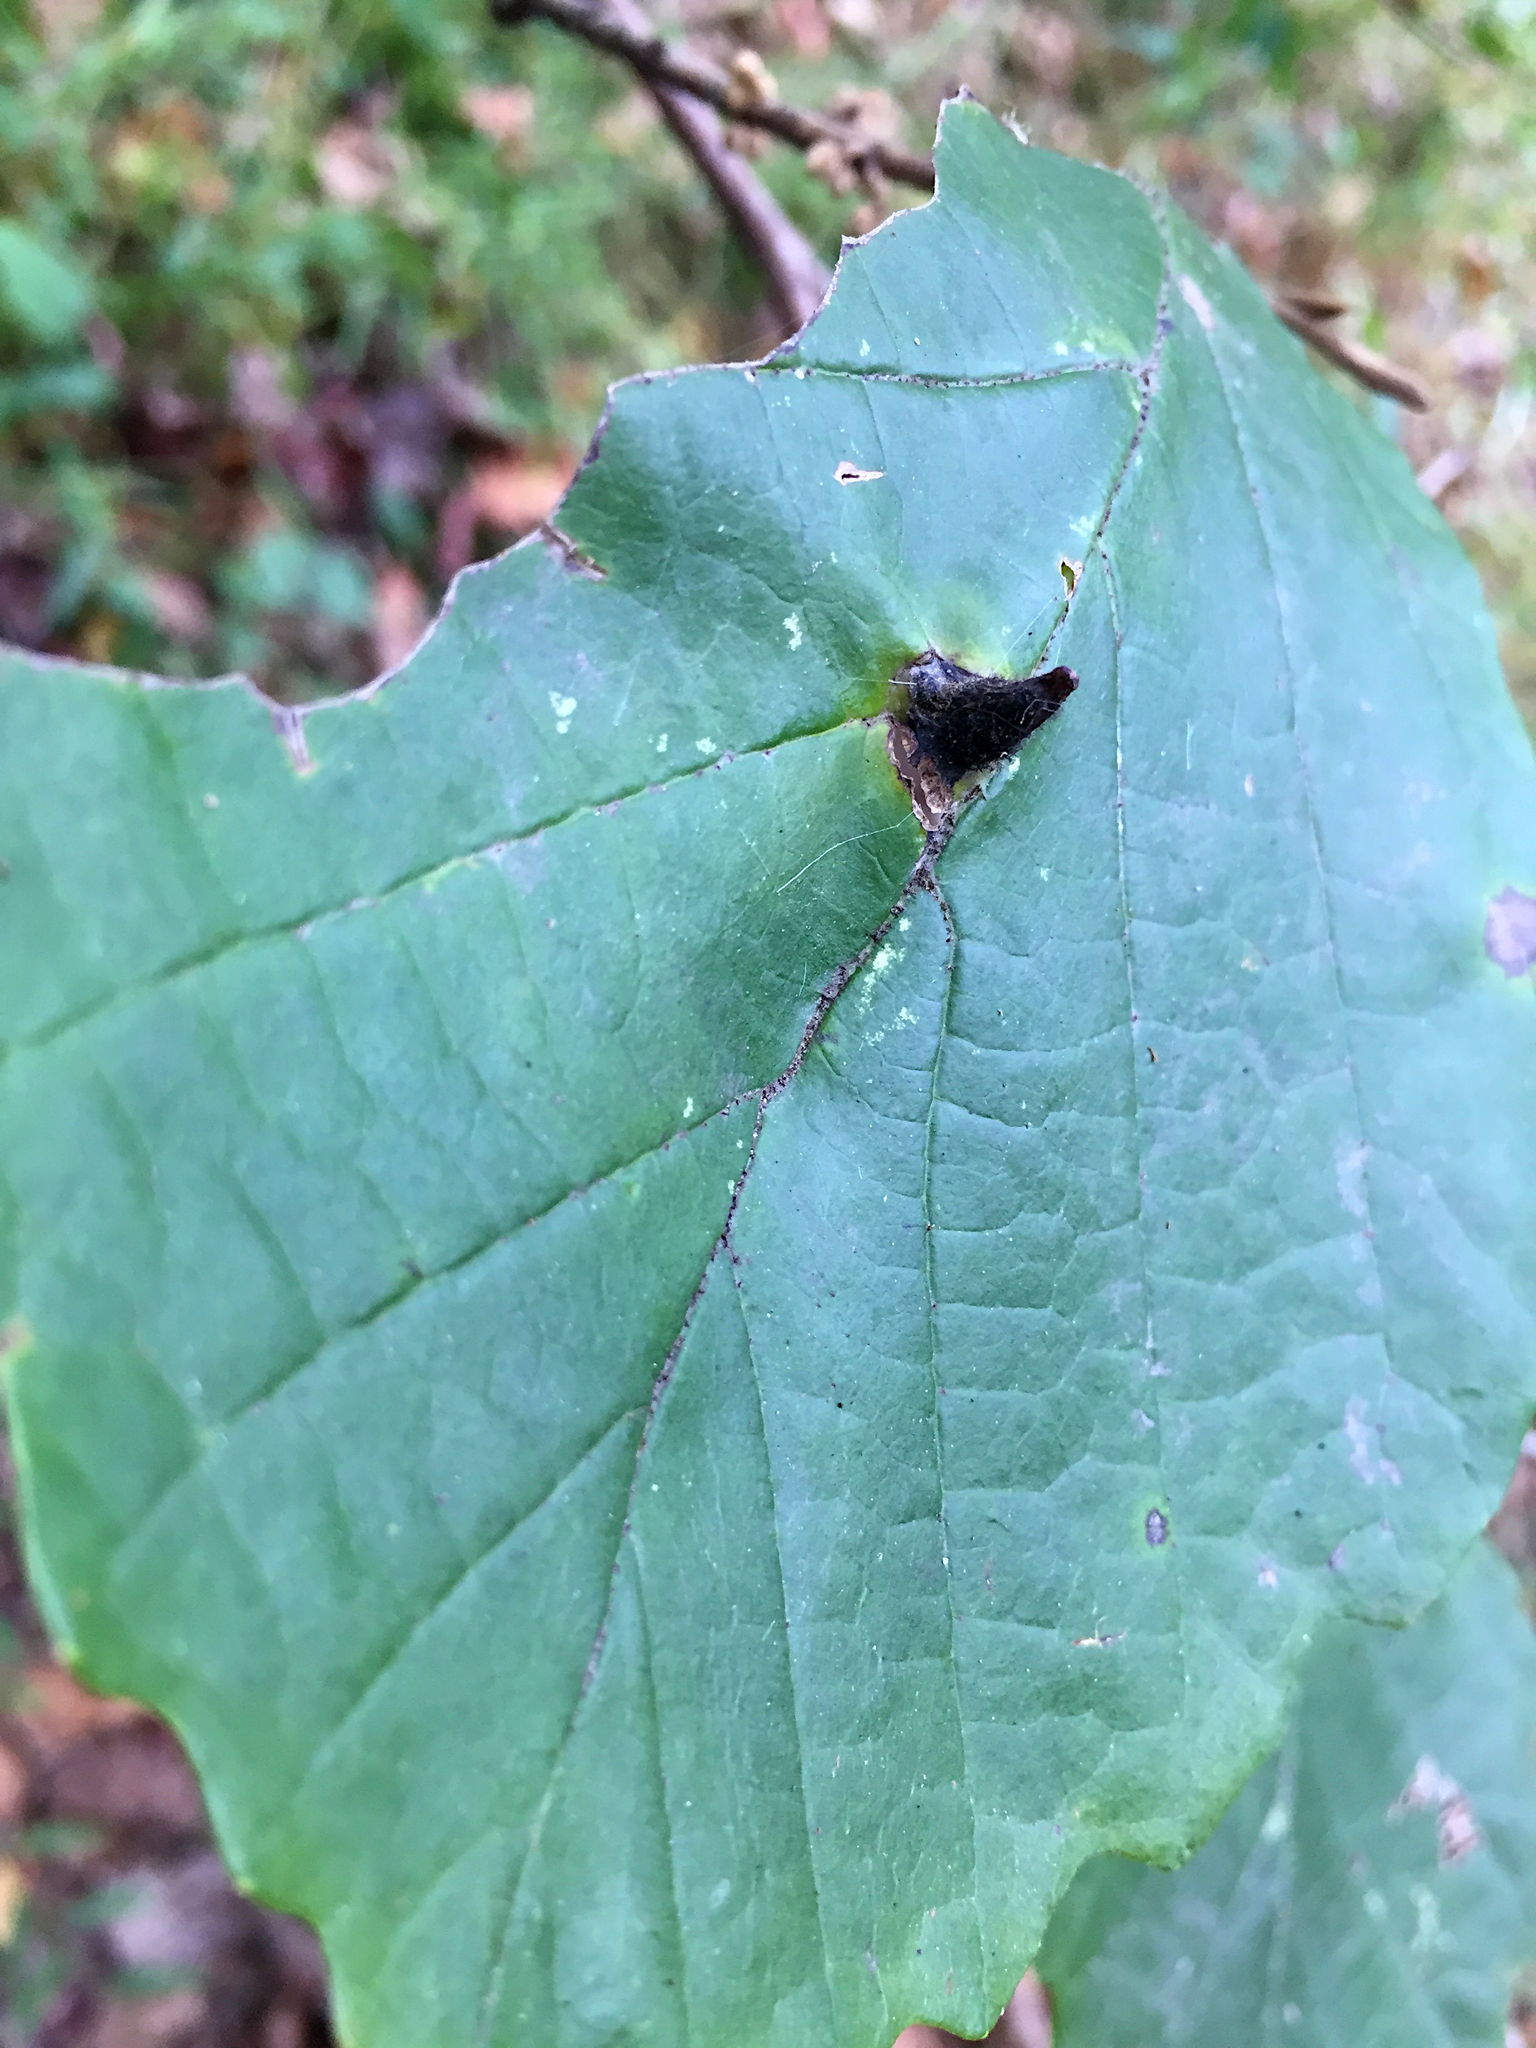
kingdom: Animalia
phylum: Arthropoda
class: Insecta
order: Hemiptera
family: Aphididae
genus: Hormaphis
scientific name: Hormaphis hamamelidis
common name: Witch-hazel cone gall aphid
